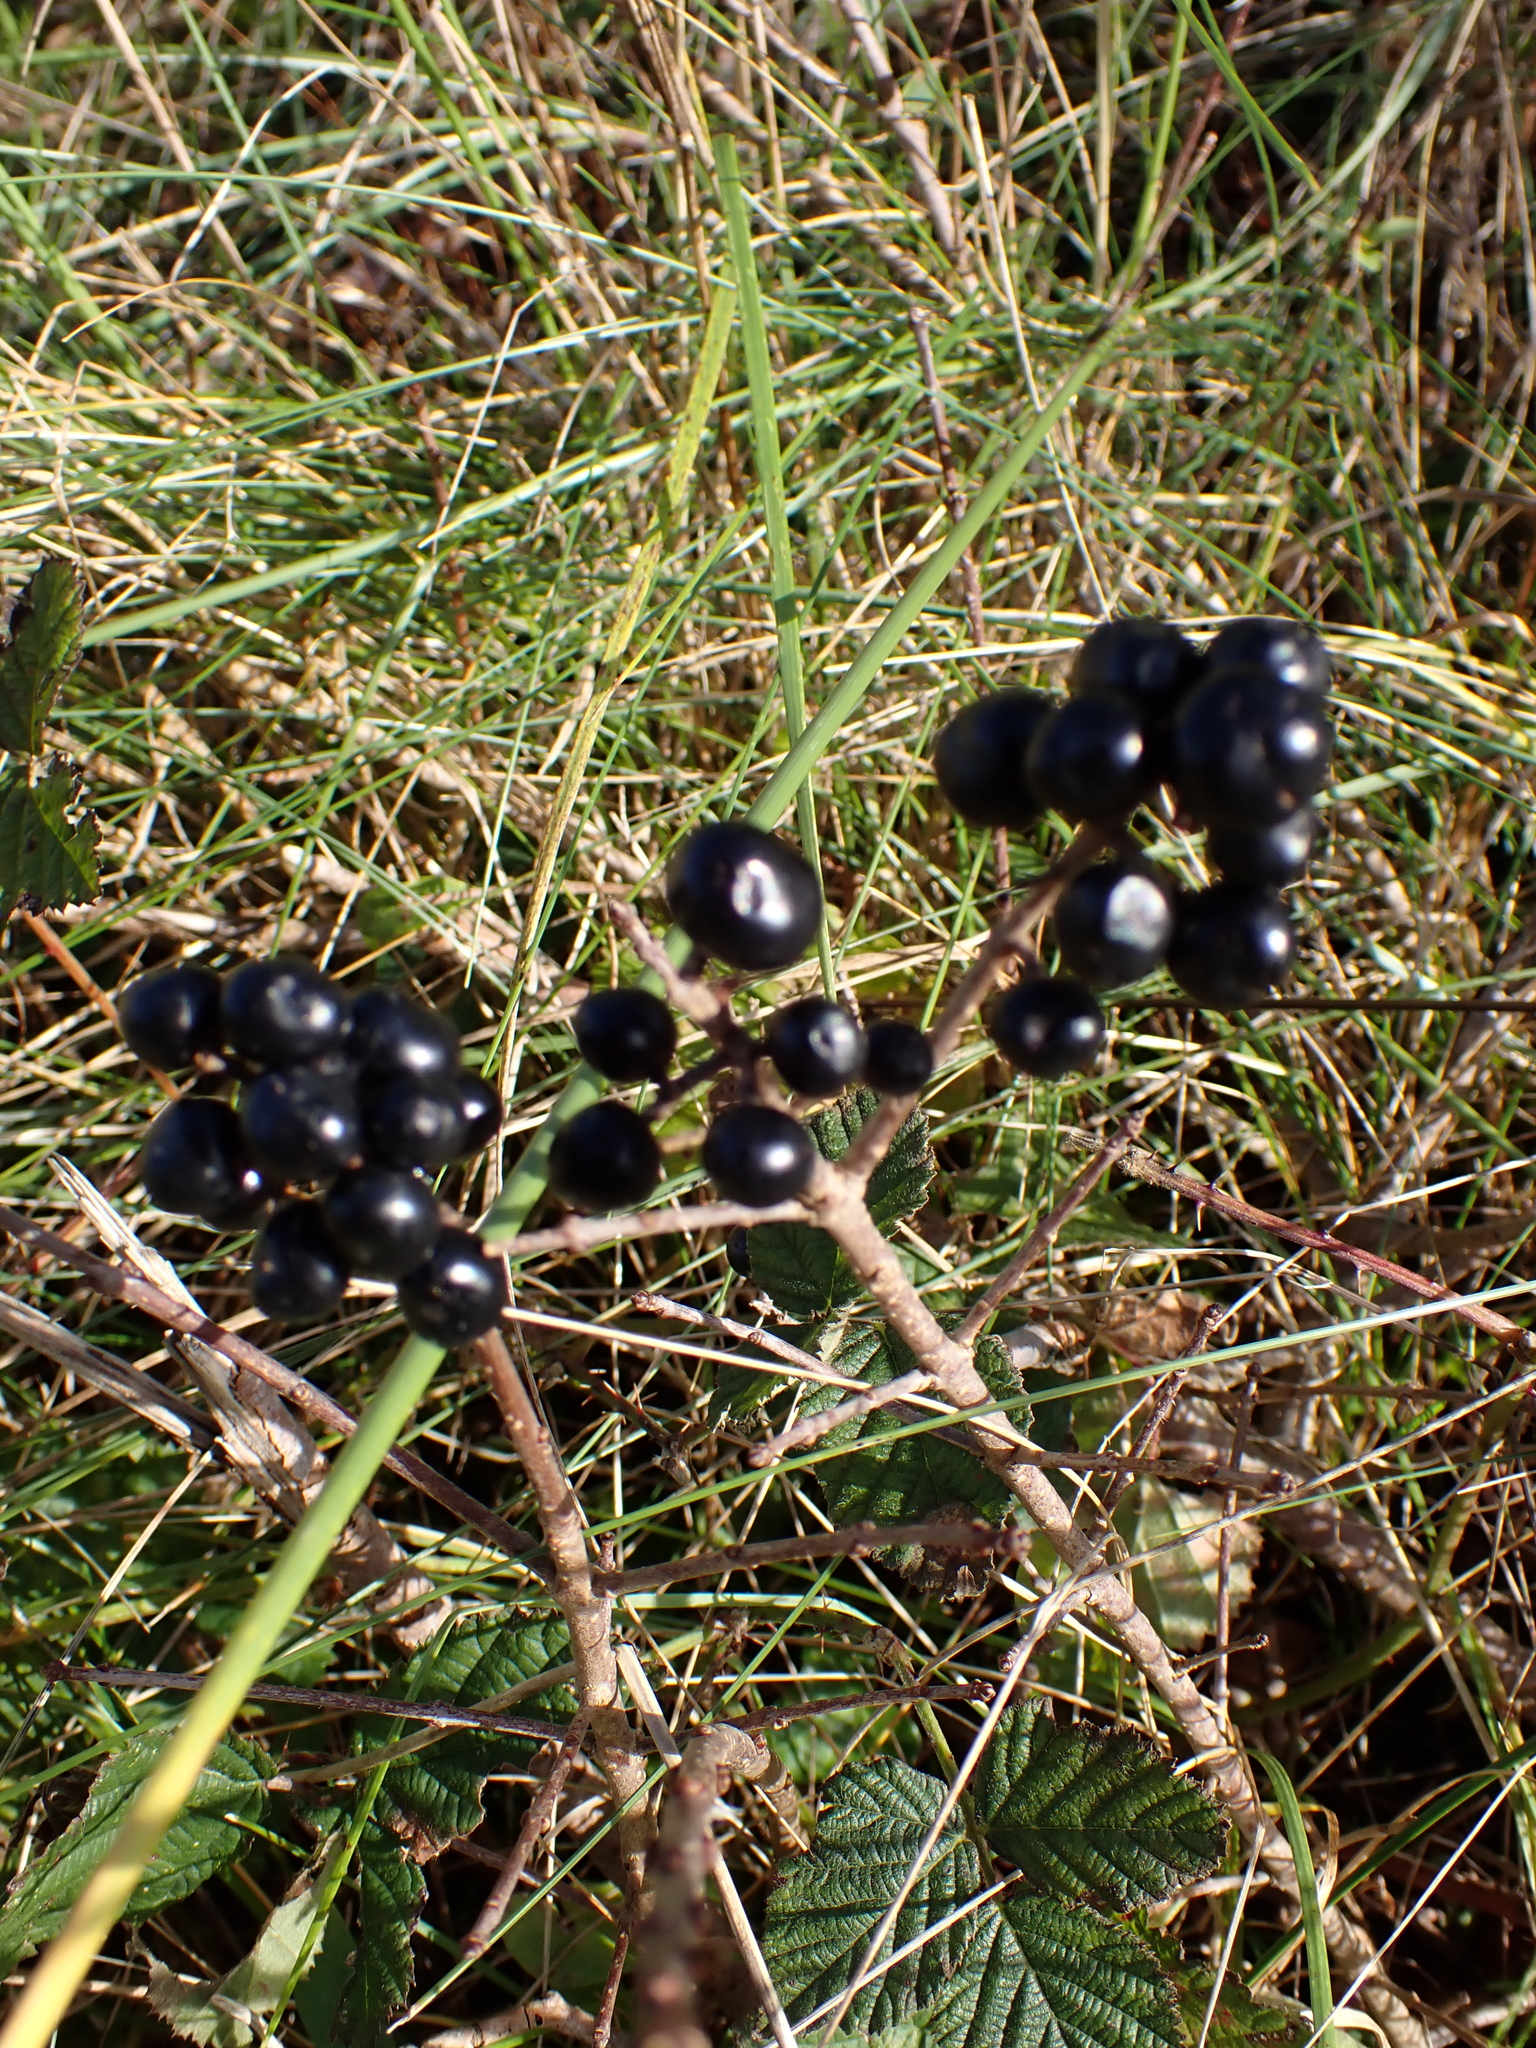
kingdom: Plantae
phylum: Tracheophyta
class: Magnoliopsida
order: Lamiales
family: Oleaceae
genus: Ligustrum
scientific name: Ligustrum vulgare
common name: Wild privet
